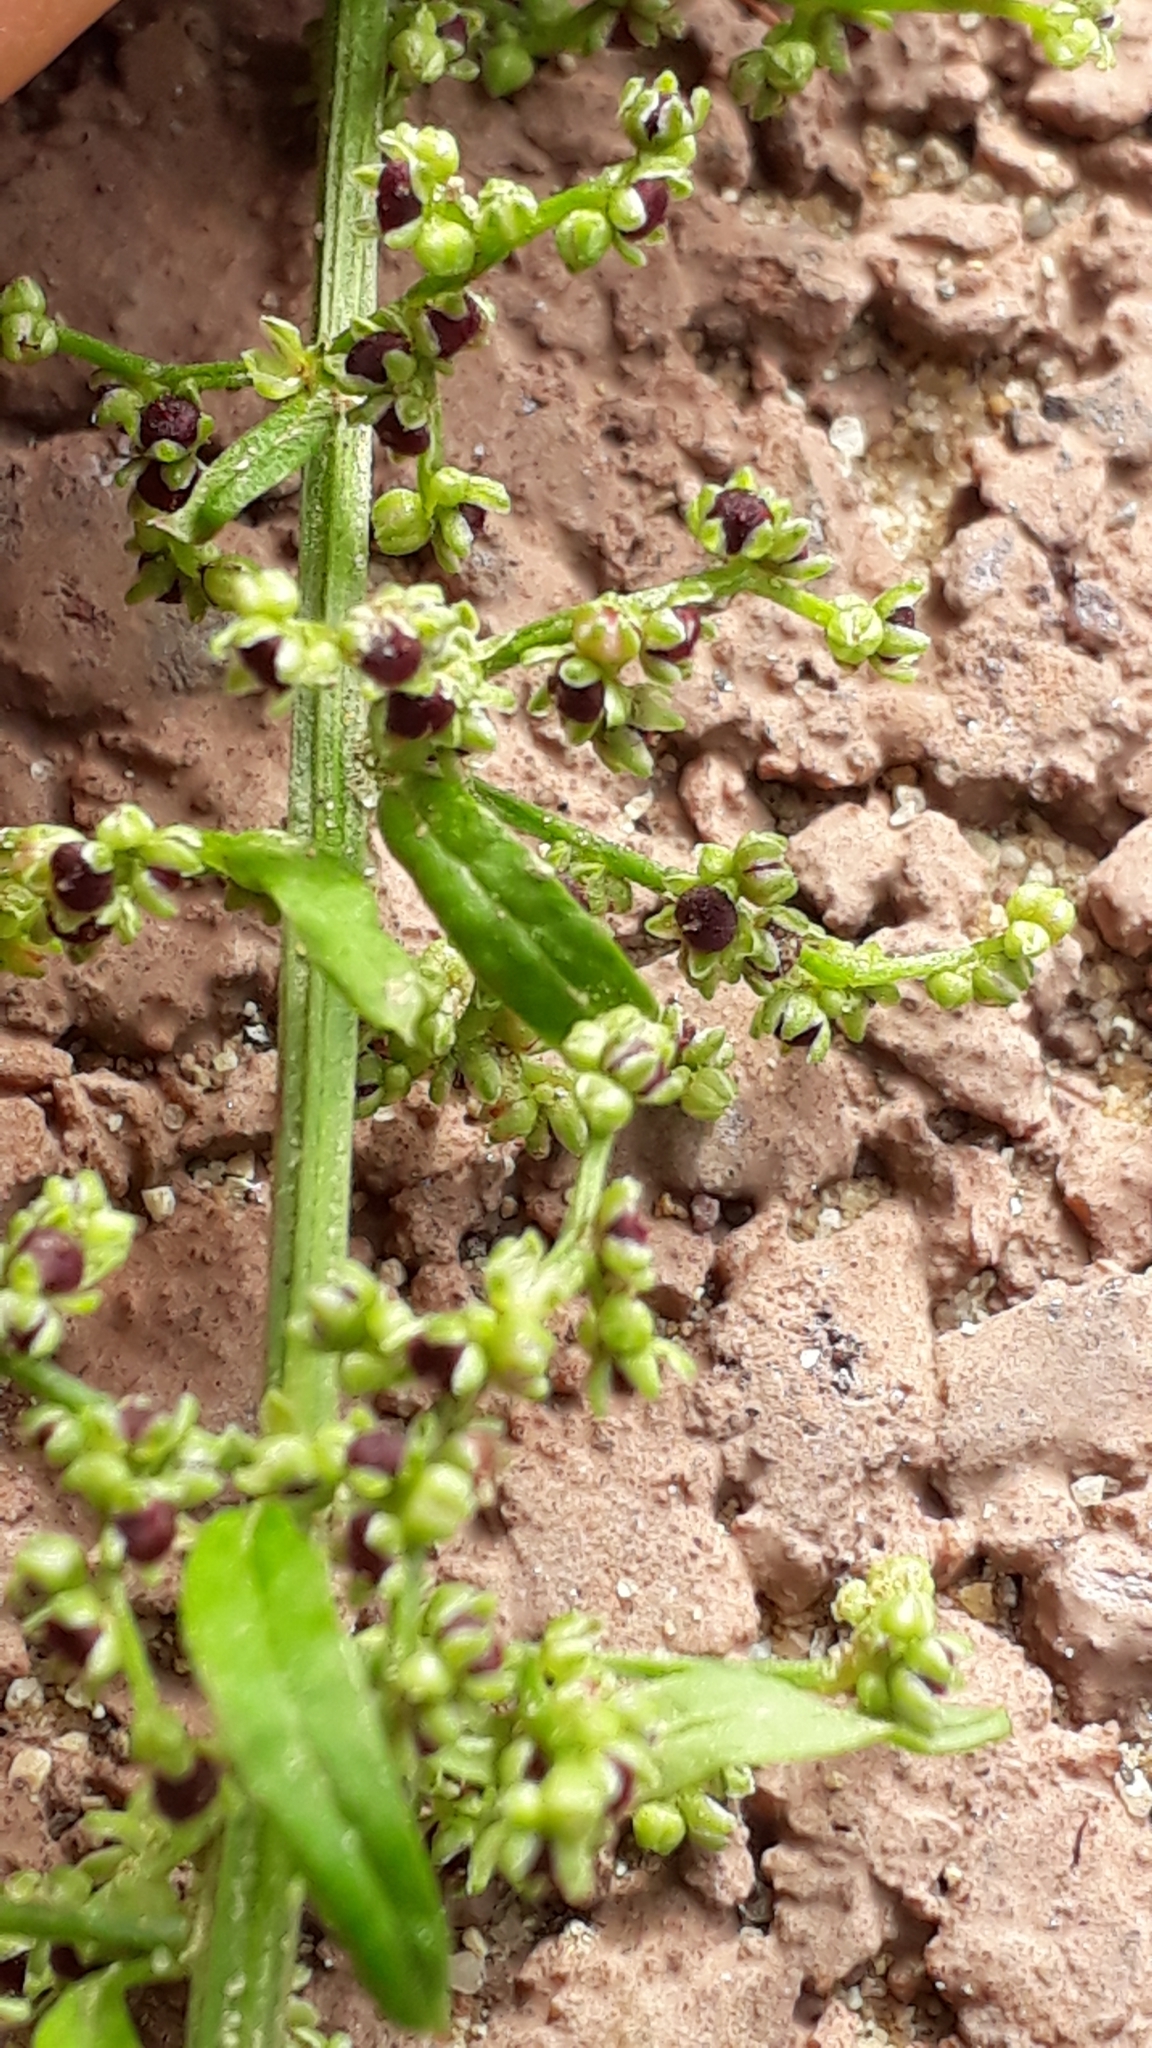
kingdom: Plantae
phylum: Tracheophyta
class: Magnoliopsida
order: Caryophyllales
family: Amaranthaceae
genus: Lipandra
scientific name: Lipandra polysperma
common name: Many-seed goosefoot
